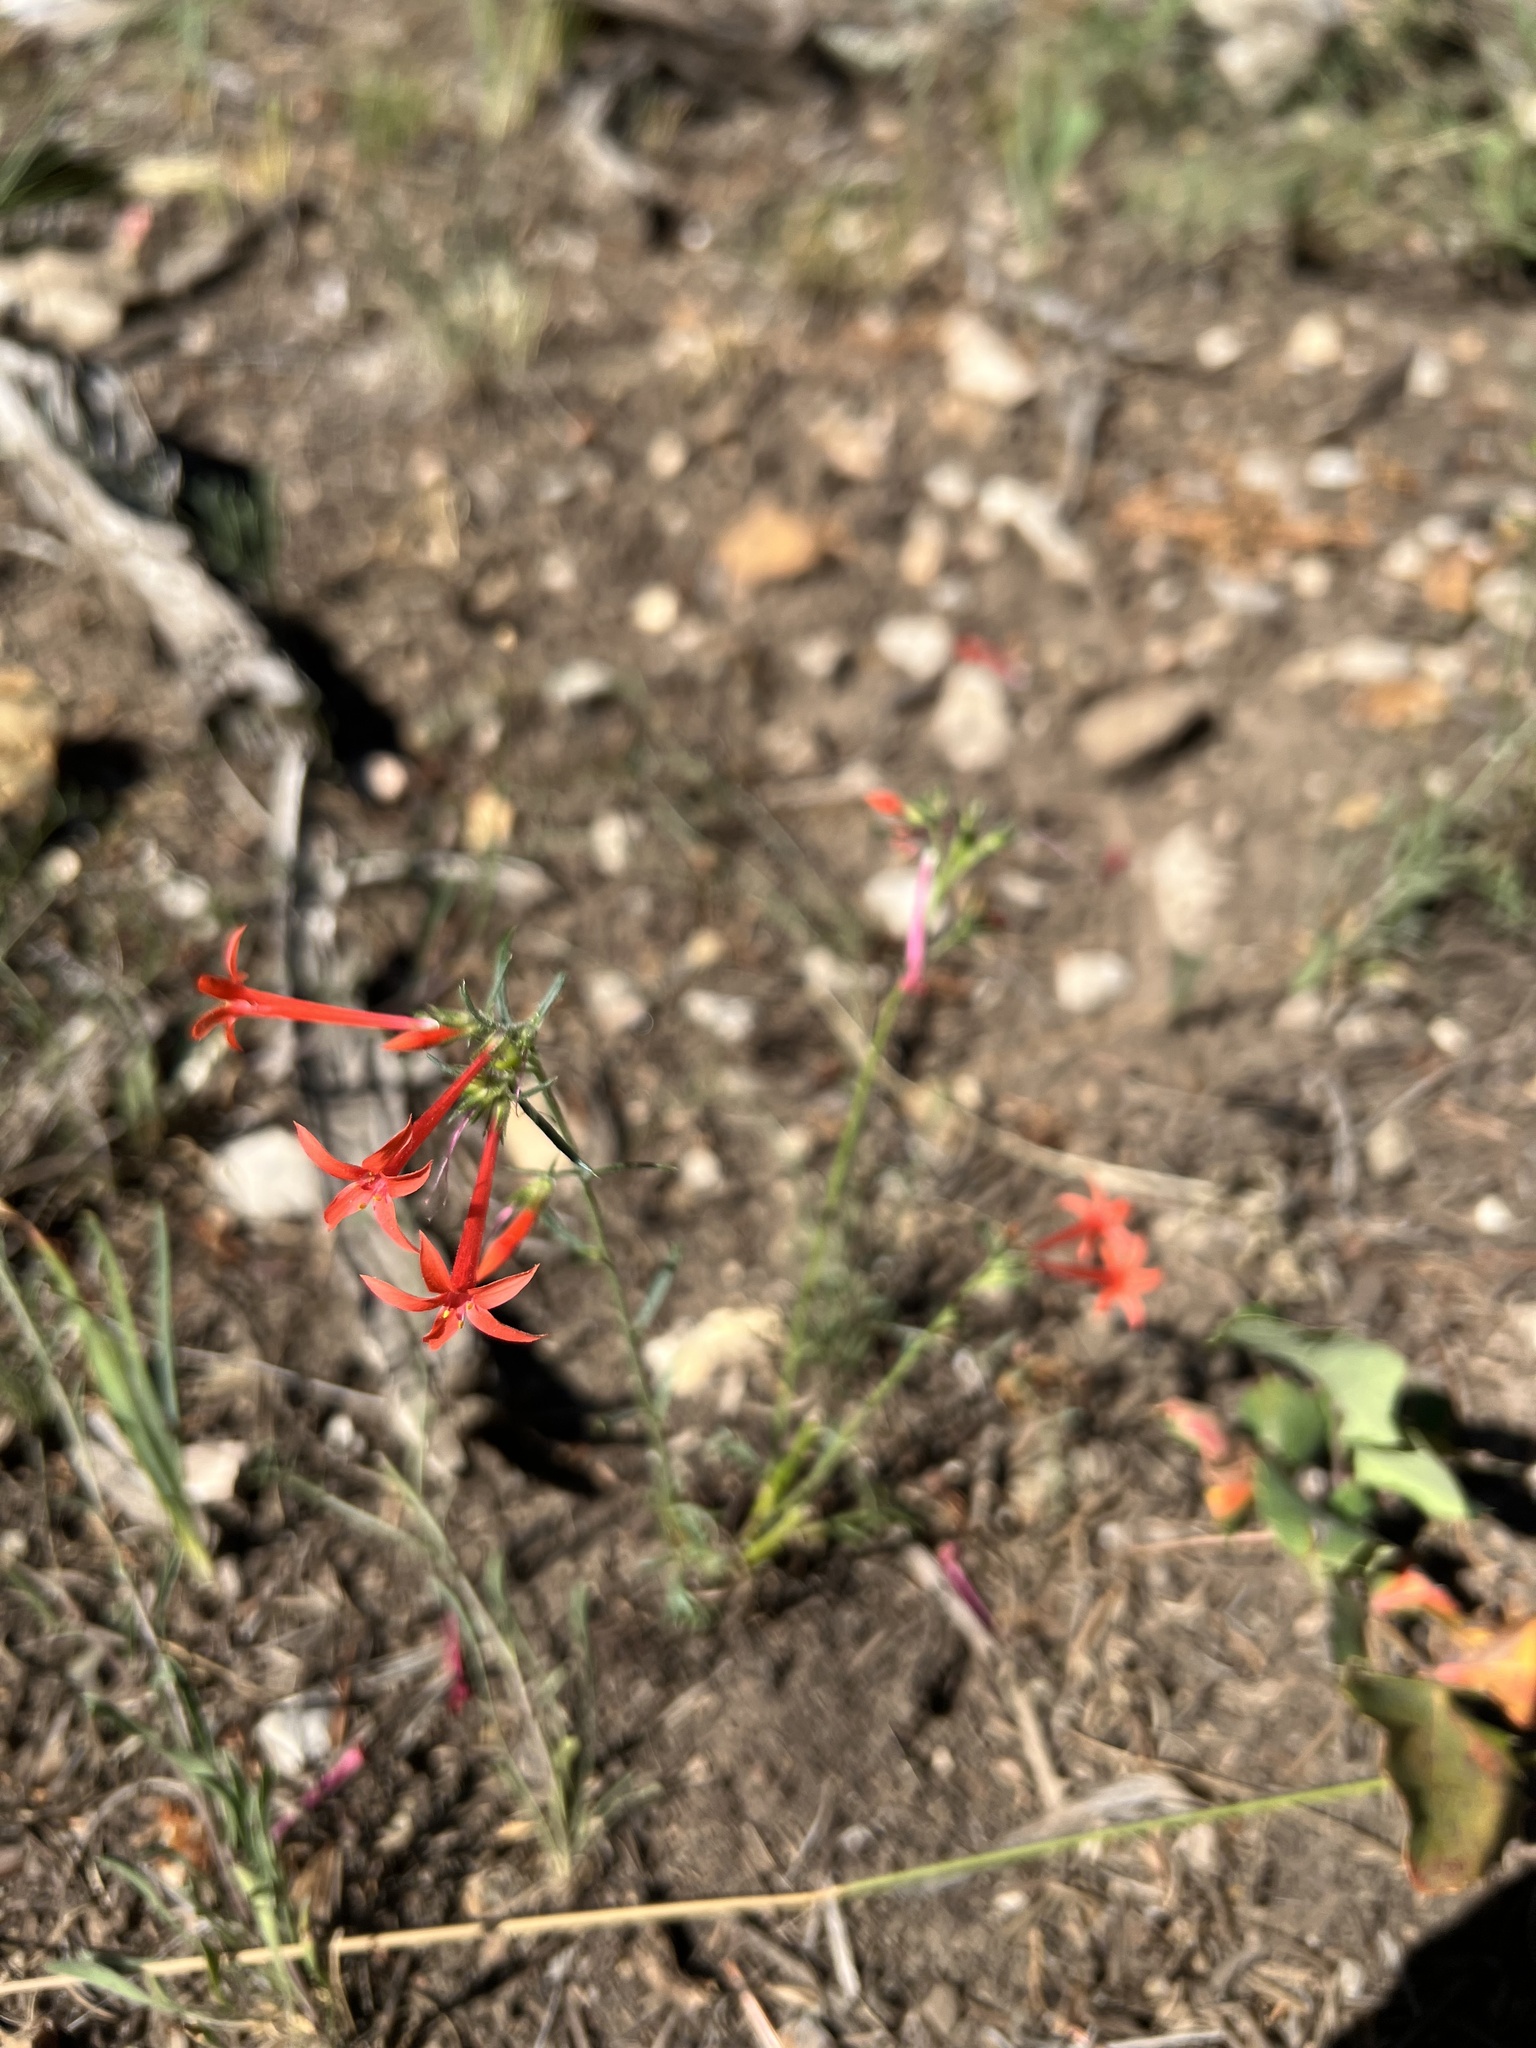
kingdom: Plantae
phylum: Tracheophyta
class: Magnoliopsida
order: Ericales
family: Polemoniaceae
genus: Ipomopsis
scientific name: Ipomopsis aggregata
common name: Scarlet gilia
